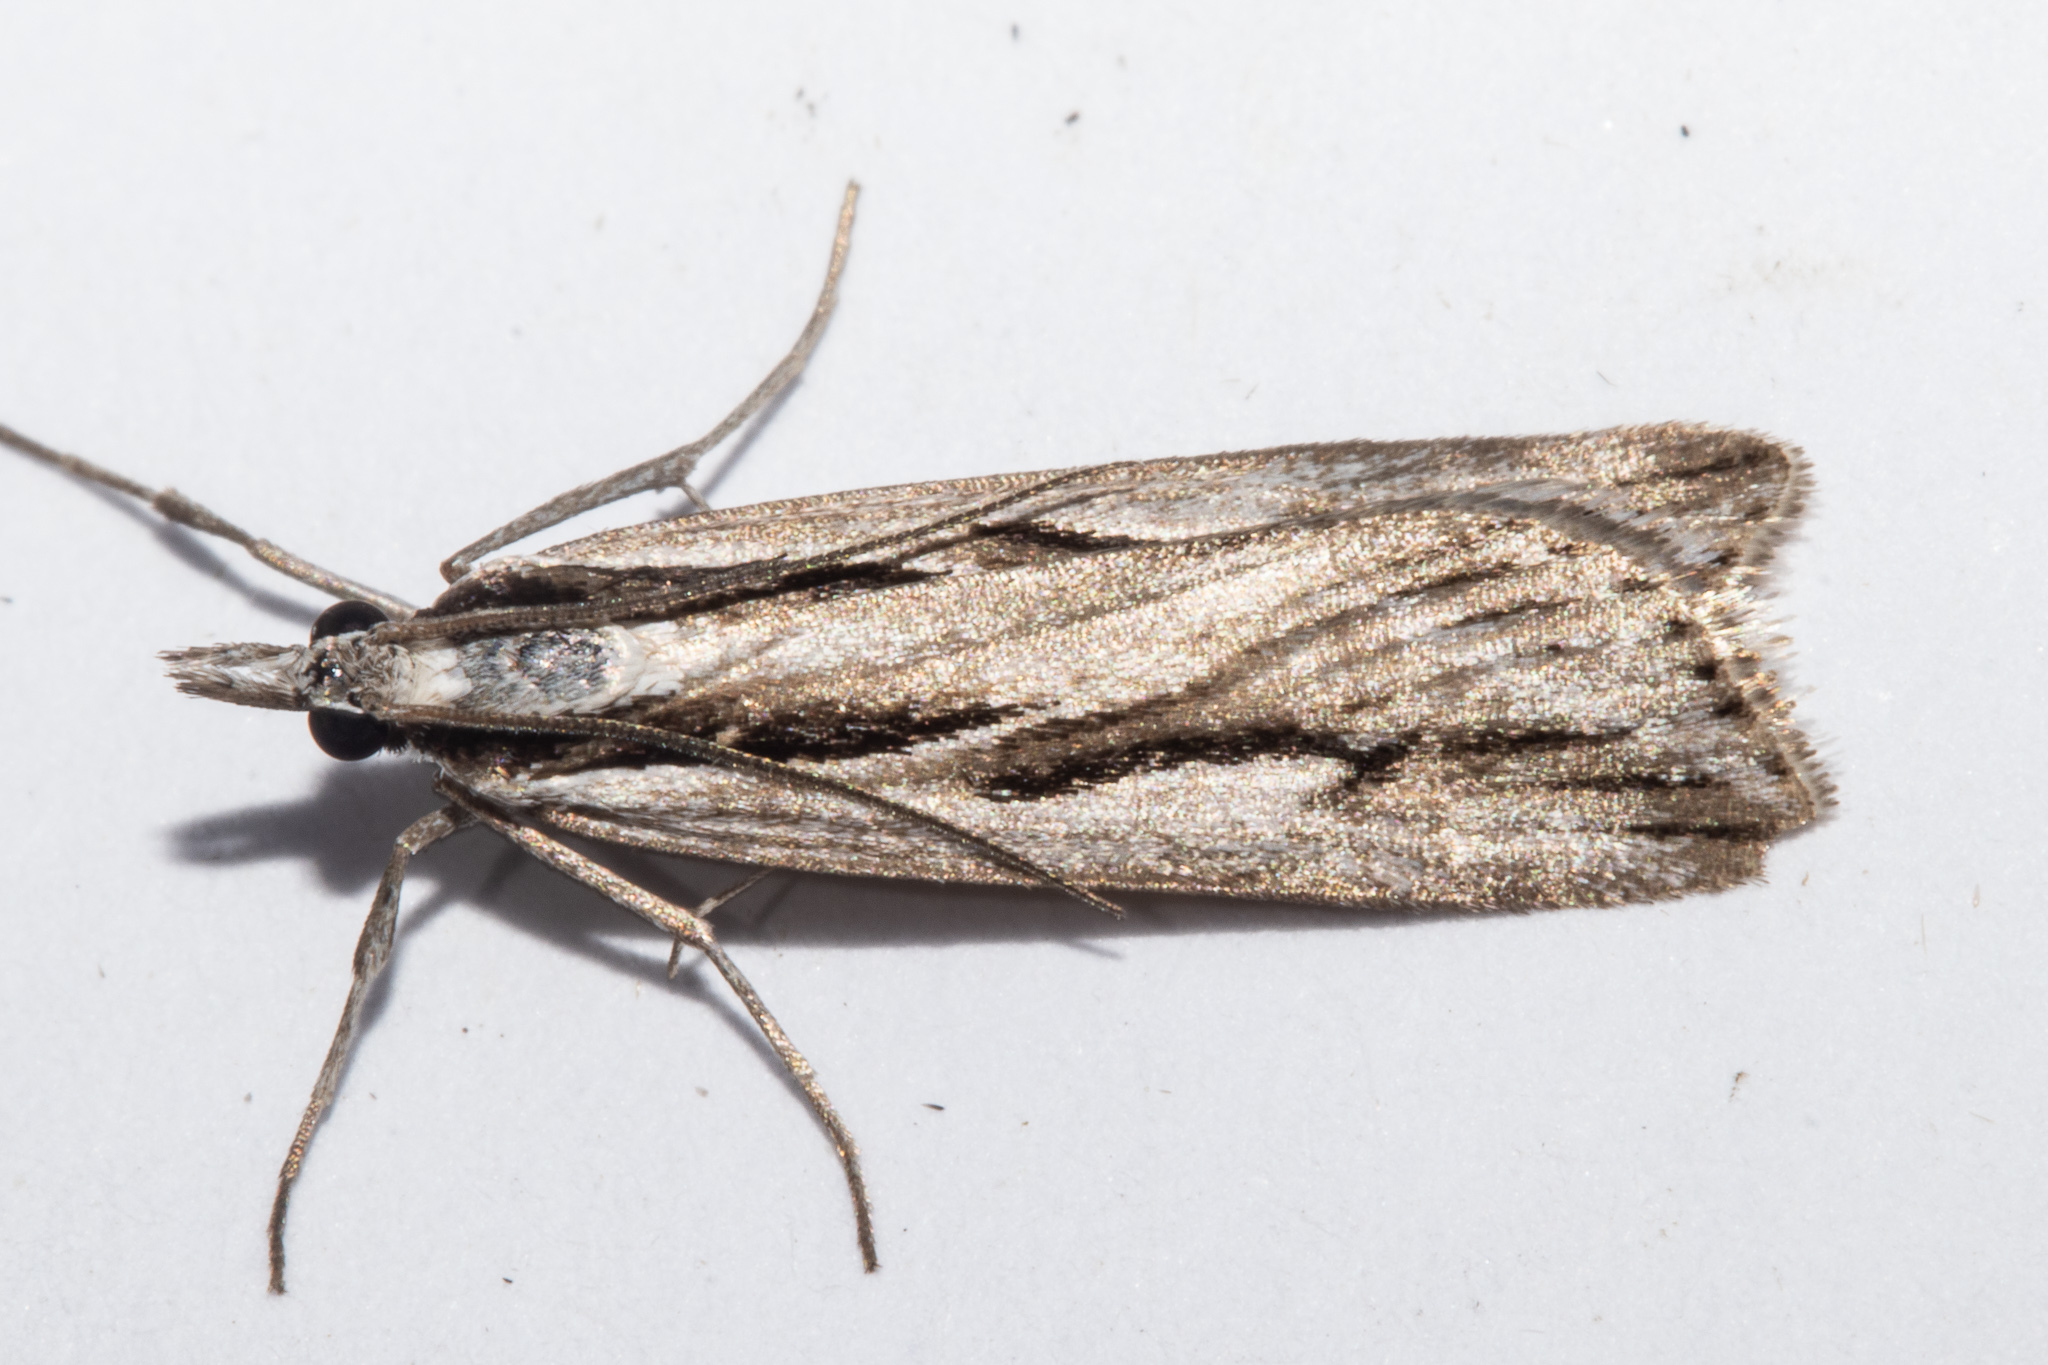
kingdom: Animalia
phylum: Arthropoda
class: Insecta
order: Lepidoptera
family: Crambidae
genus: Scoparia
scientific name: Scoparia rotuellus
